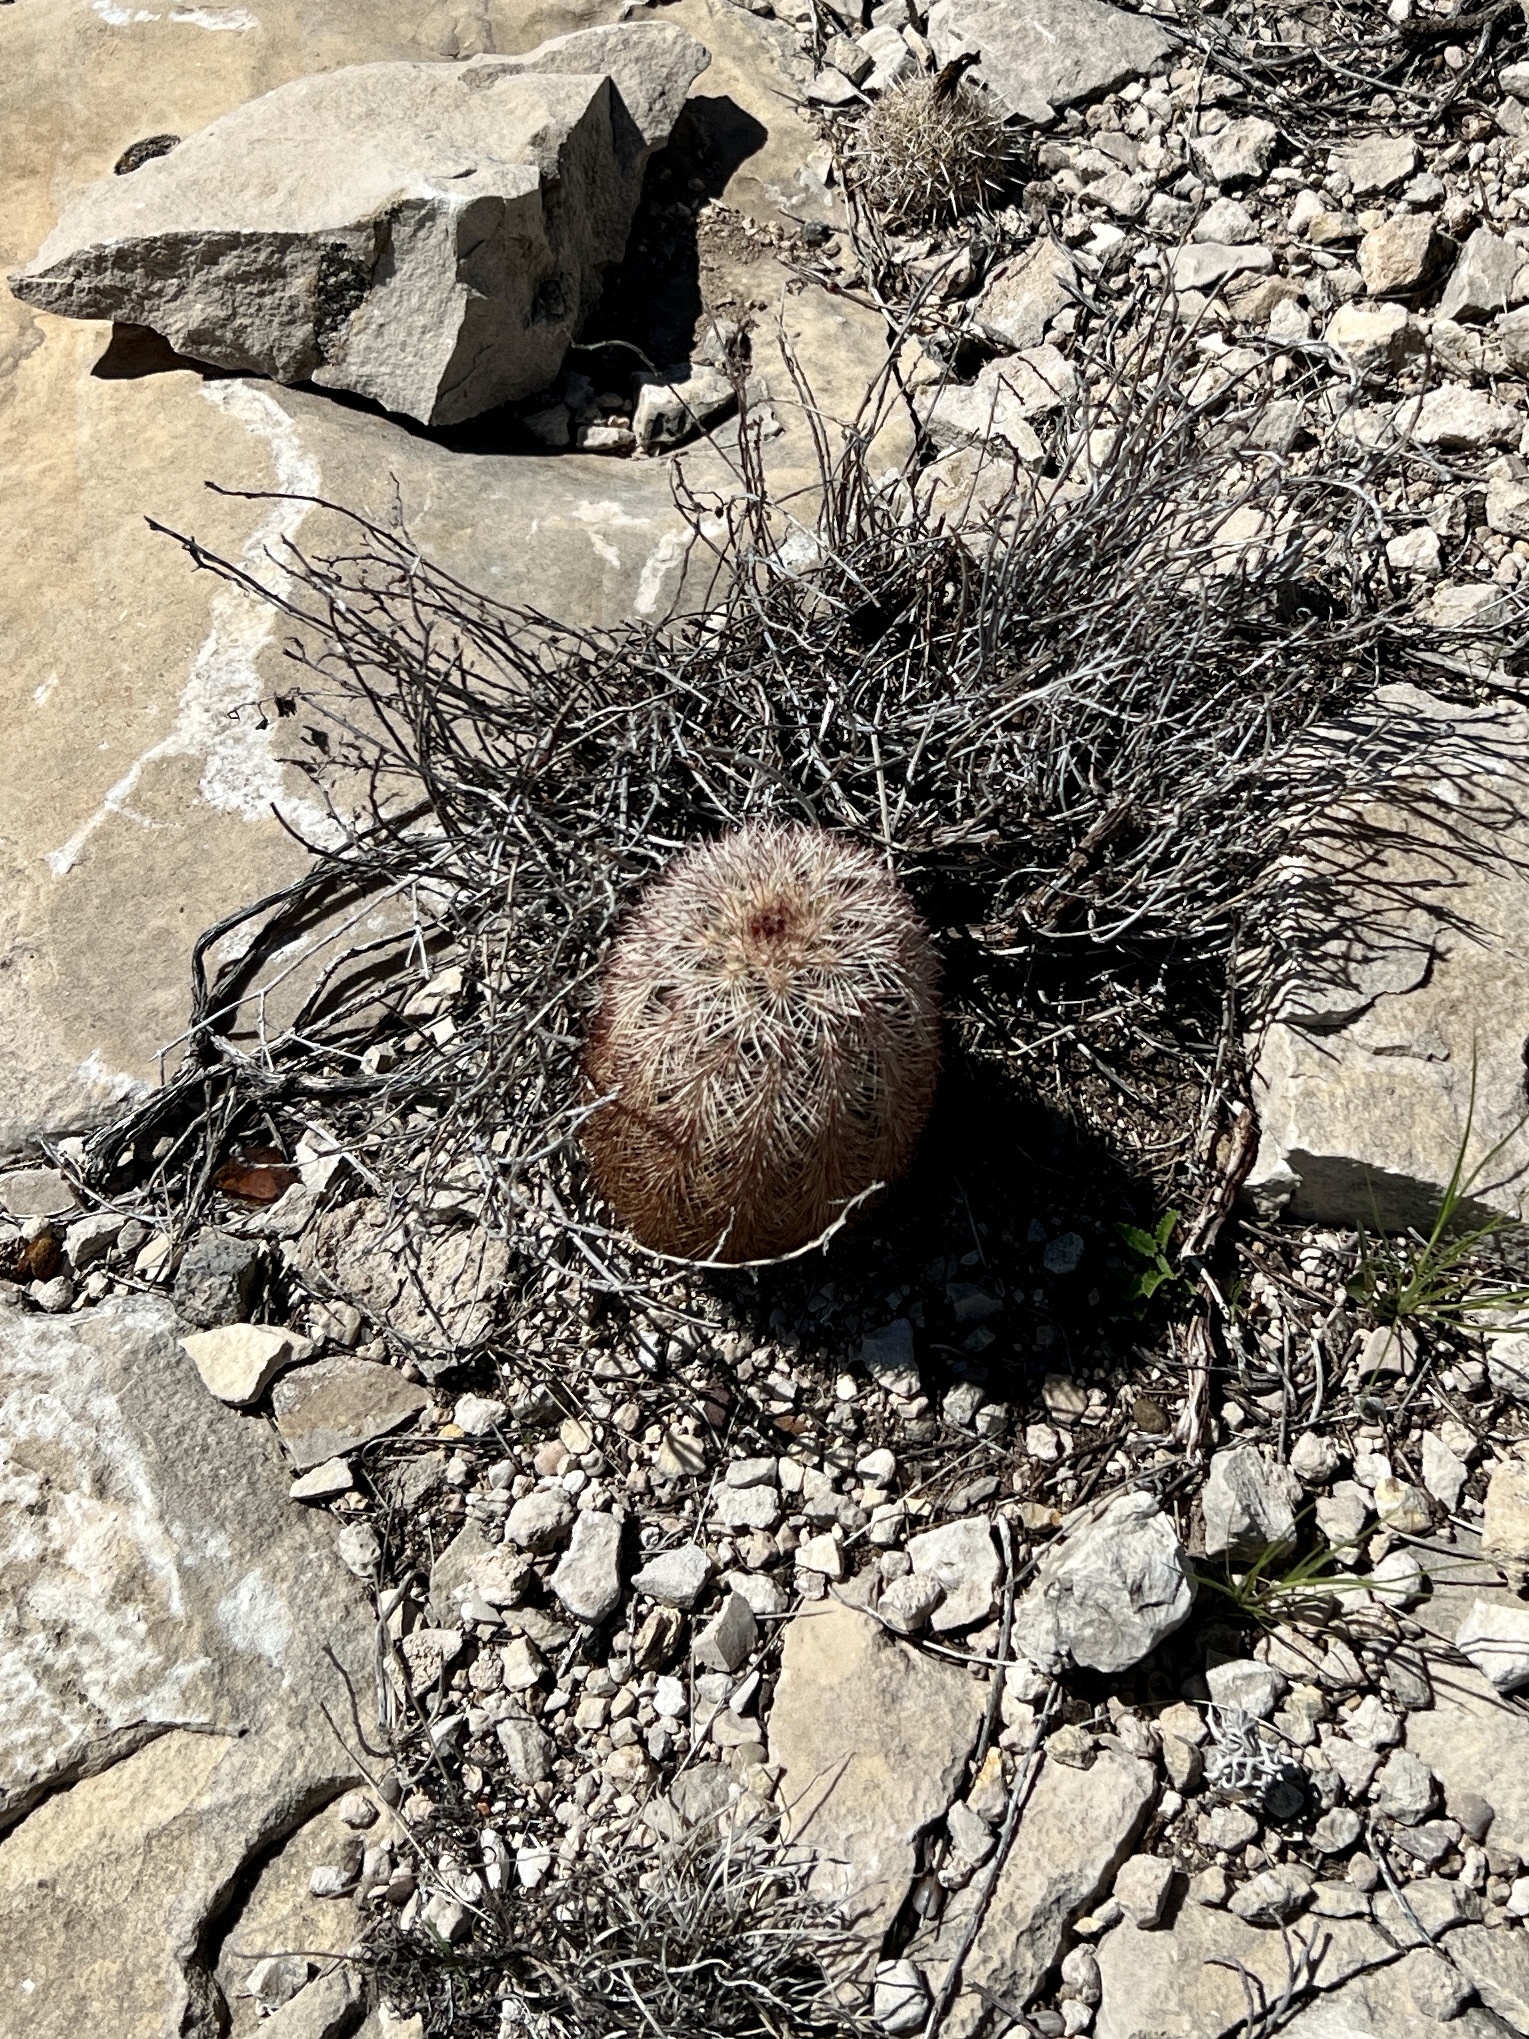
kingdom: Plantae
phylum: Tracheophyta
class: Magnoliopsida
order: Caryophyllales
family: Cactaceae
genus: Echinocereus
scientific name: Echinocereus dasyacanthus
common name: Spiny hedgehog cactus
